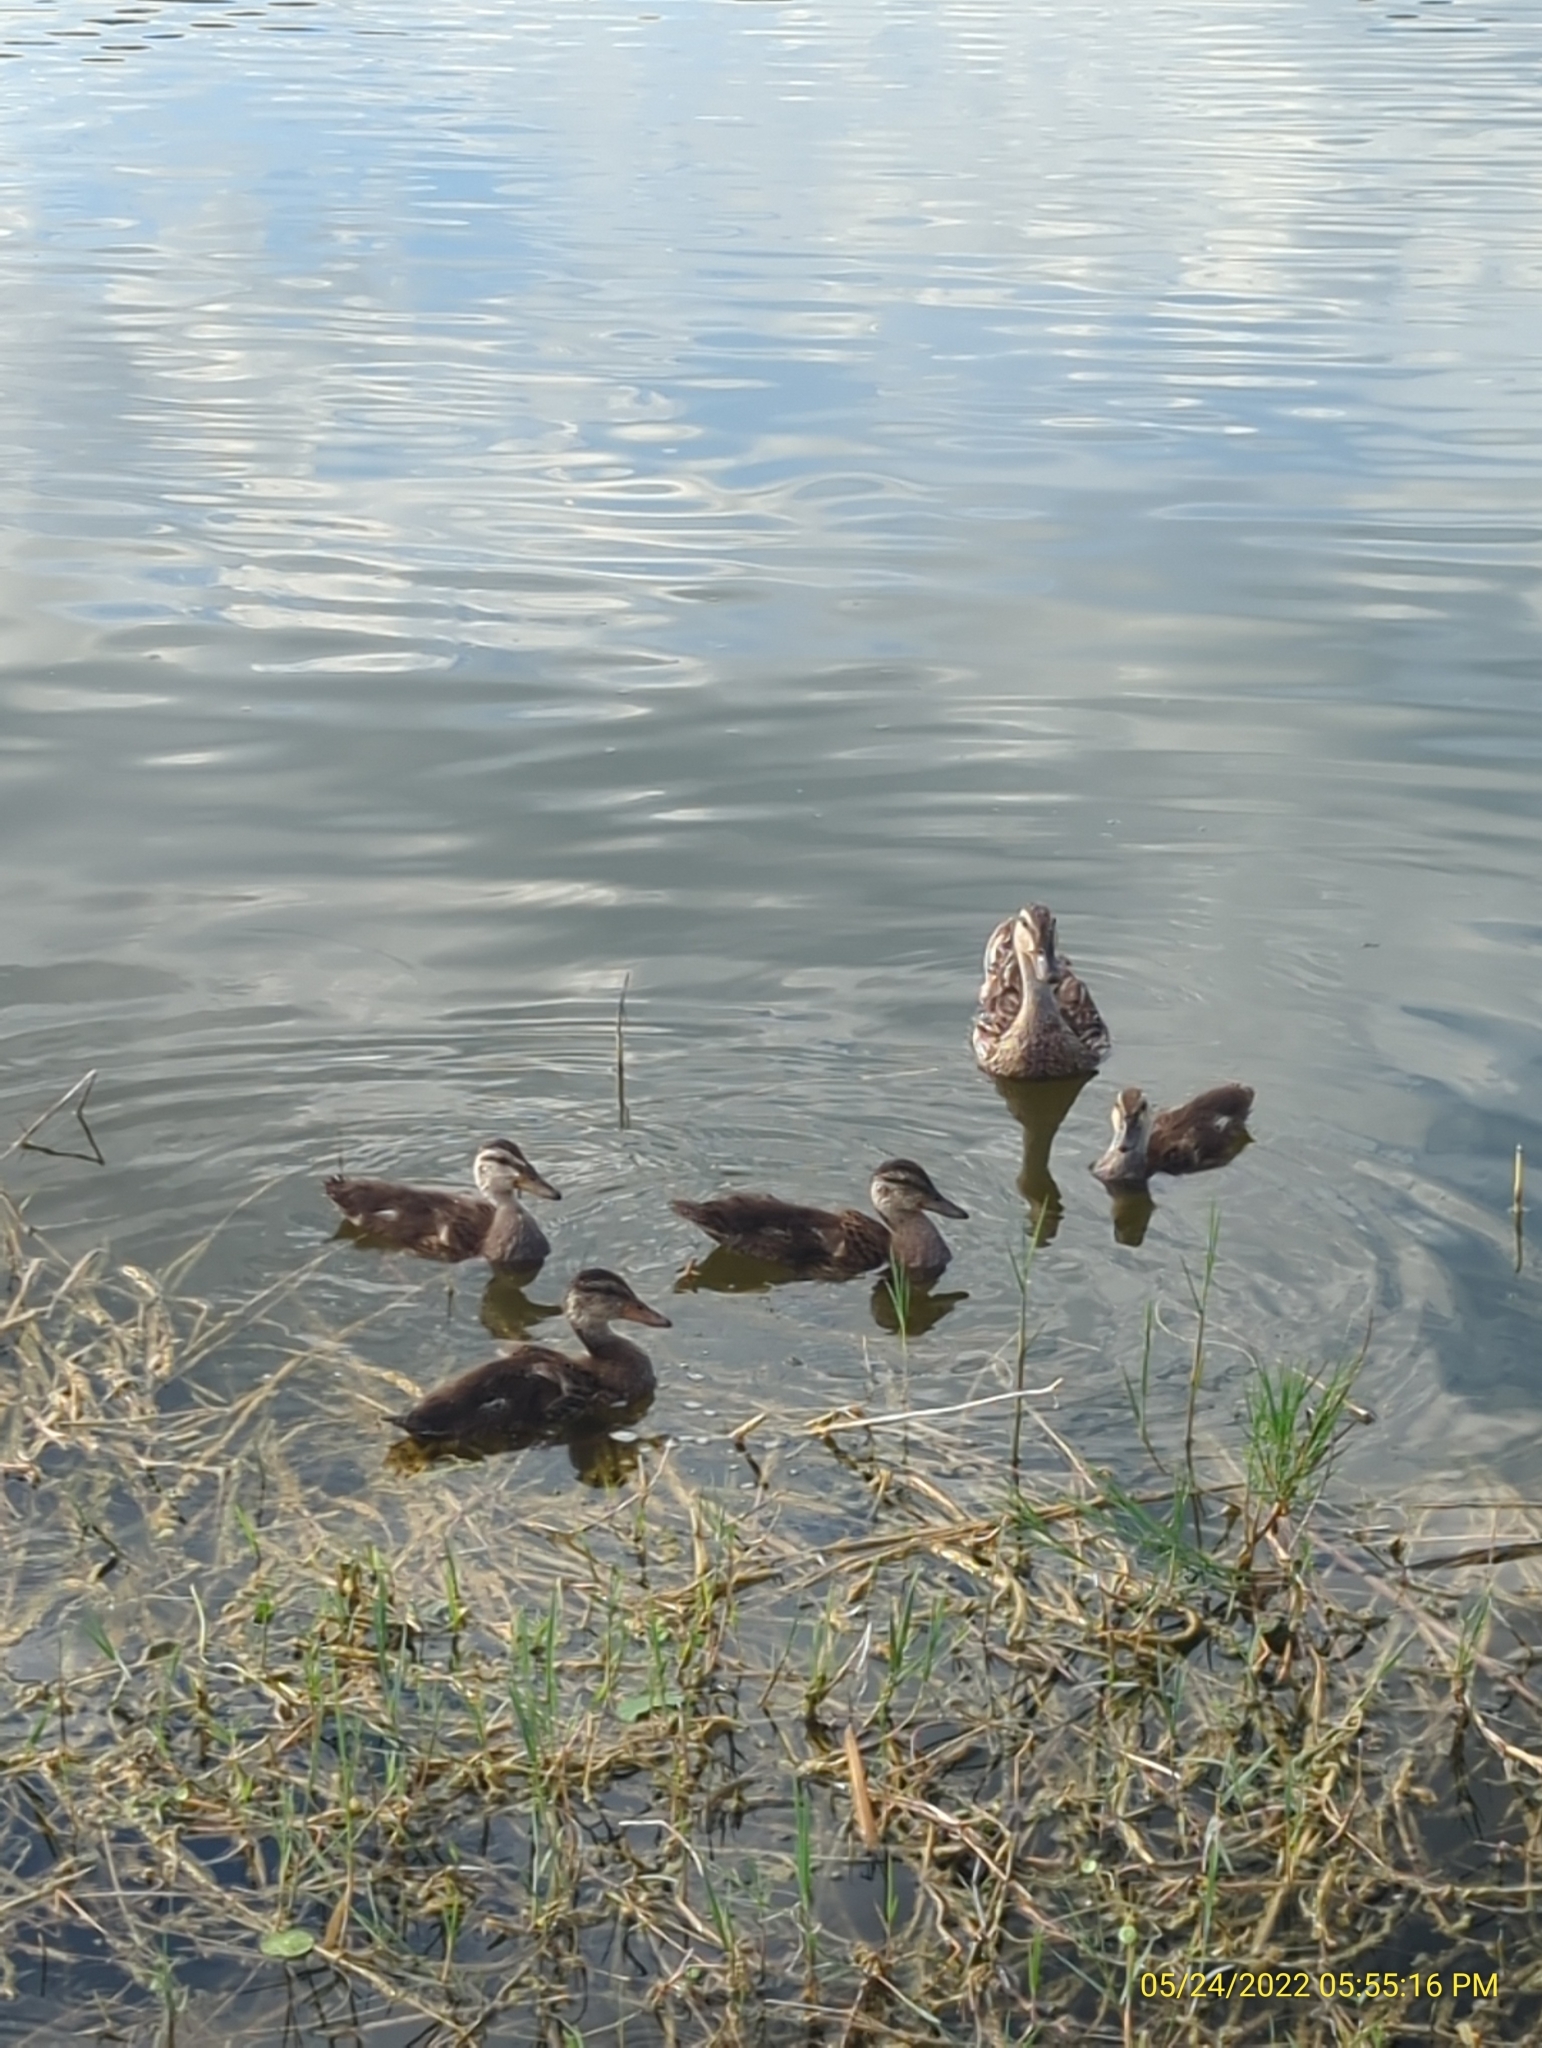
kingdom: Animalia
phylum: Chordata
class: Aves
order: Anseriformes
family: Anatidae
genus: Anas
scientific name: Anas platyrhynchos
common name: Mallard
